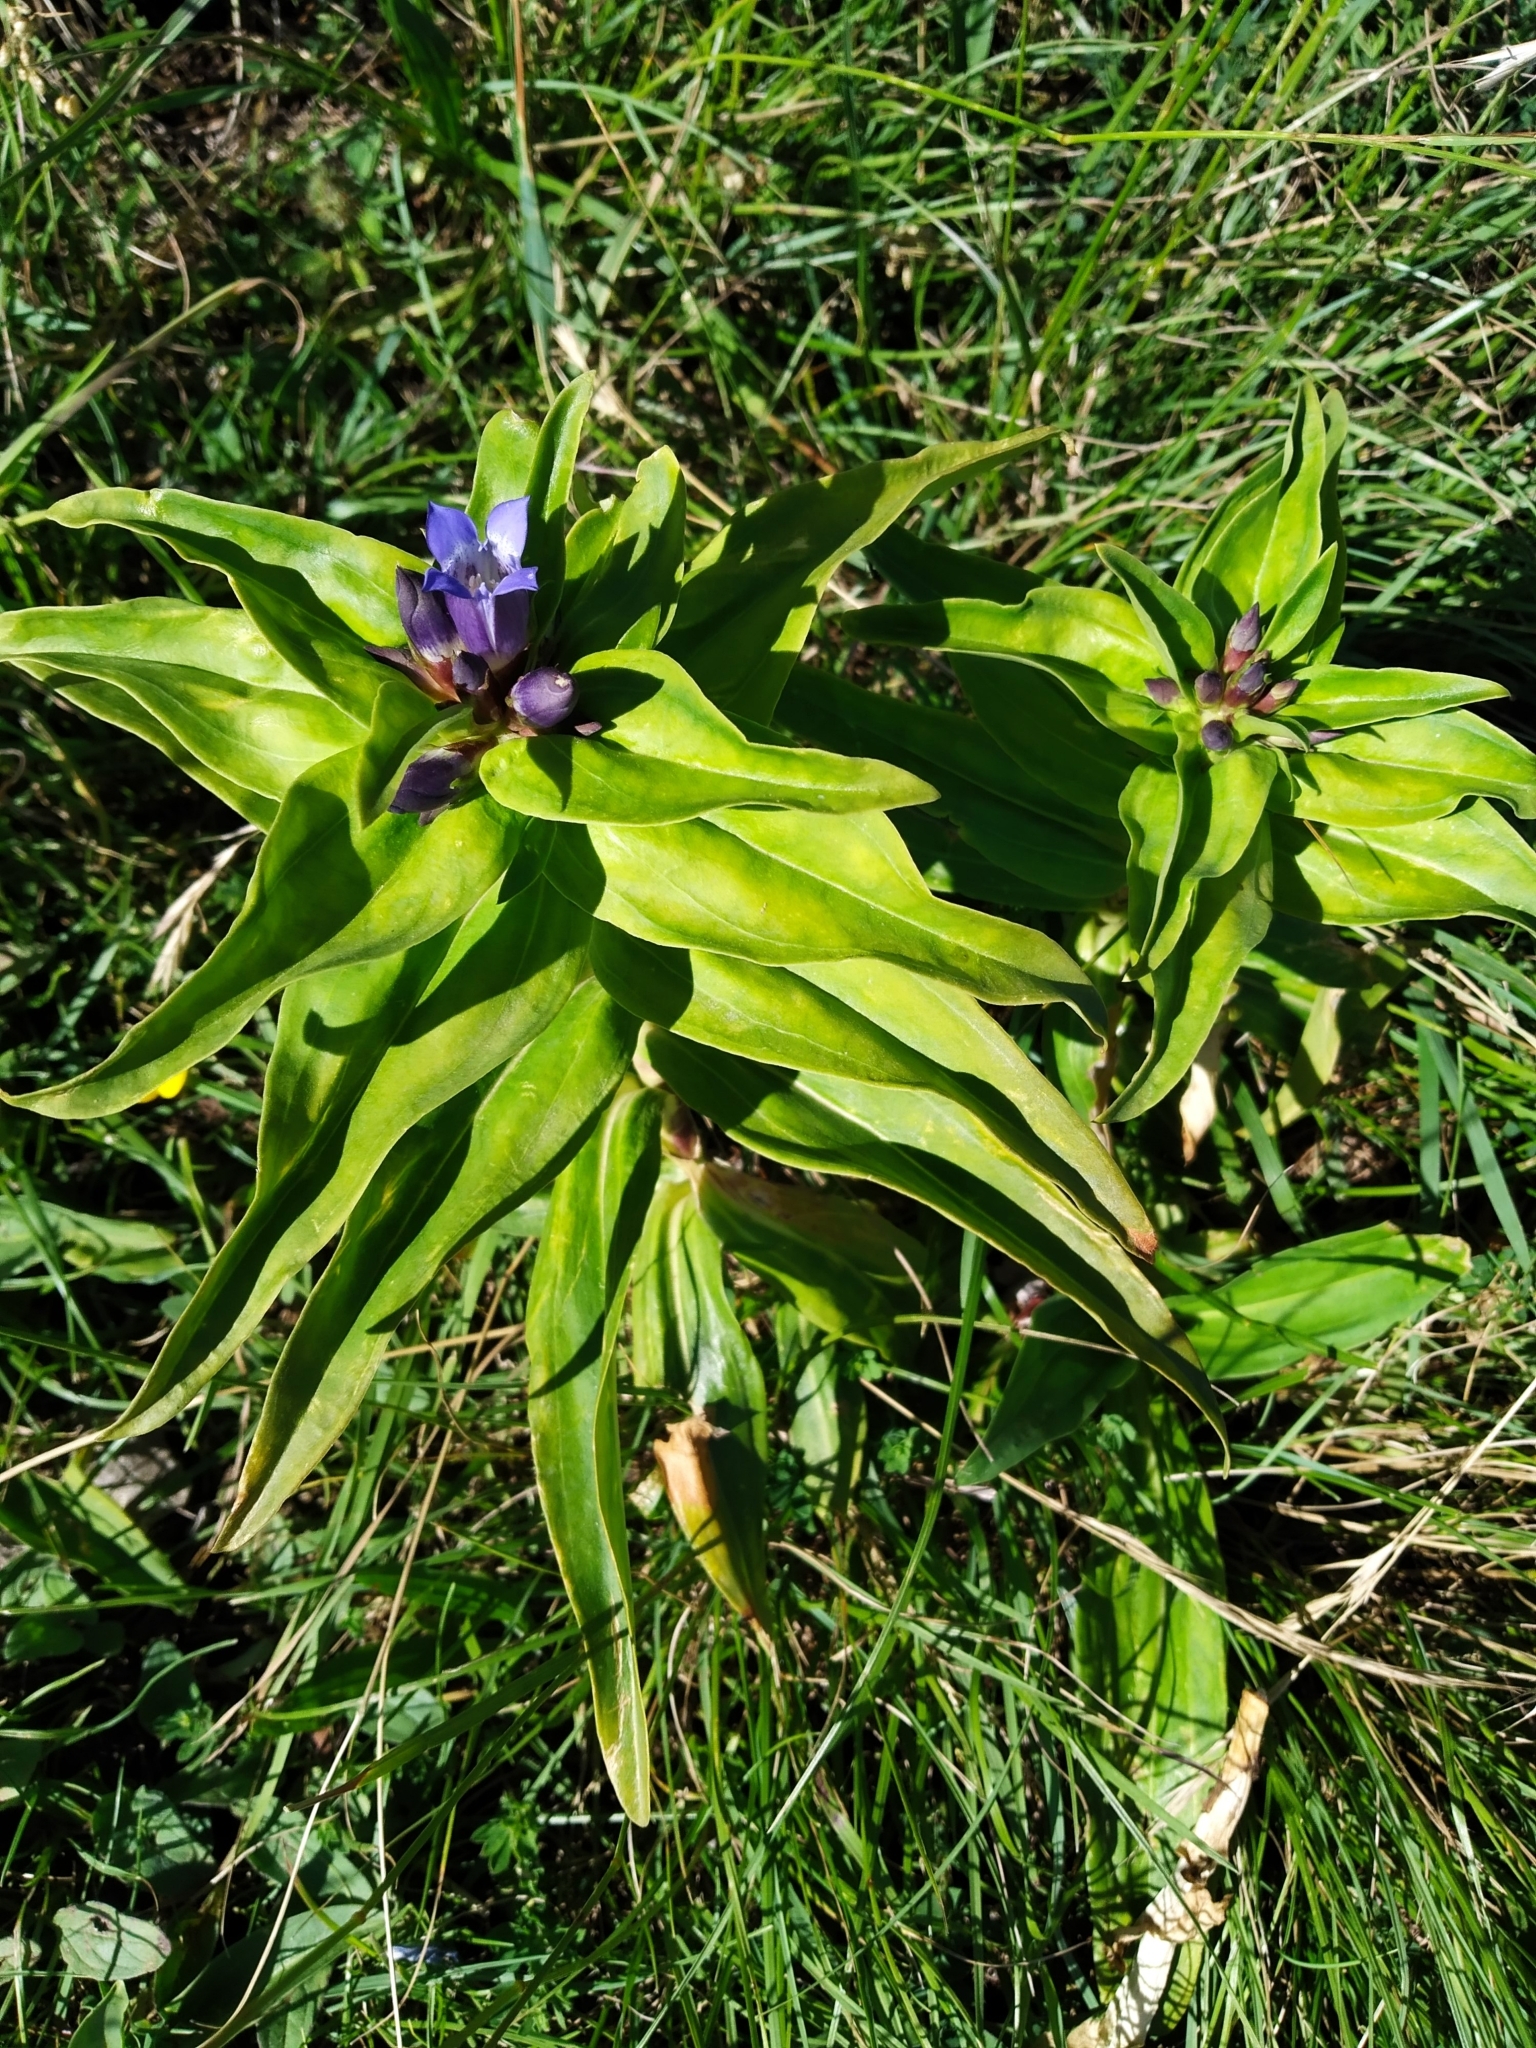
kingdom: Plantae
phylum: Tracheophyta
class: Magnoliopsida
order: Gentianales
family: Gentianaceae
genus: Gentiana
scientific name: Gentiana cruciata
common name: Cross gentian
